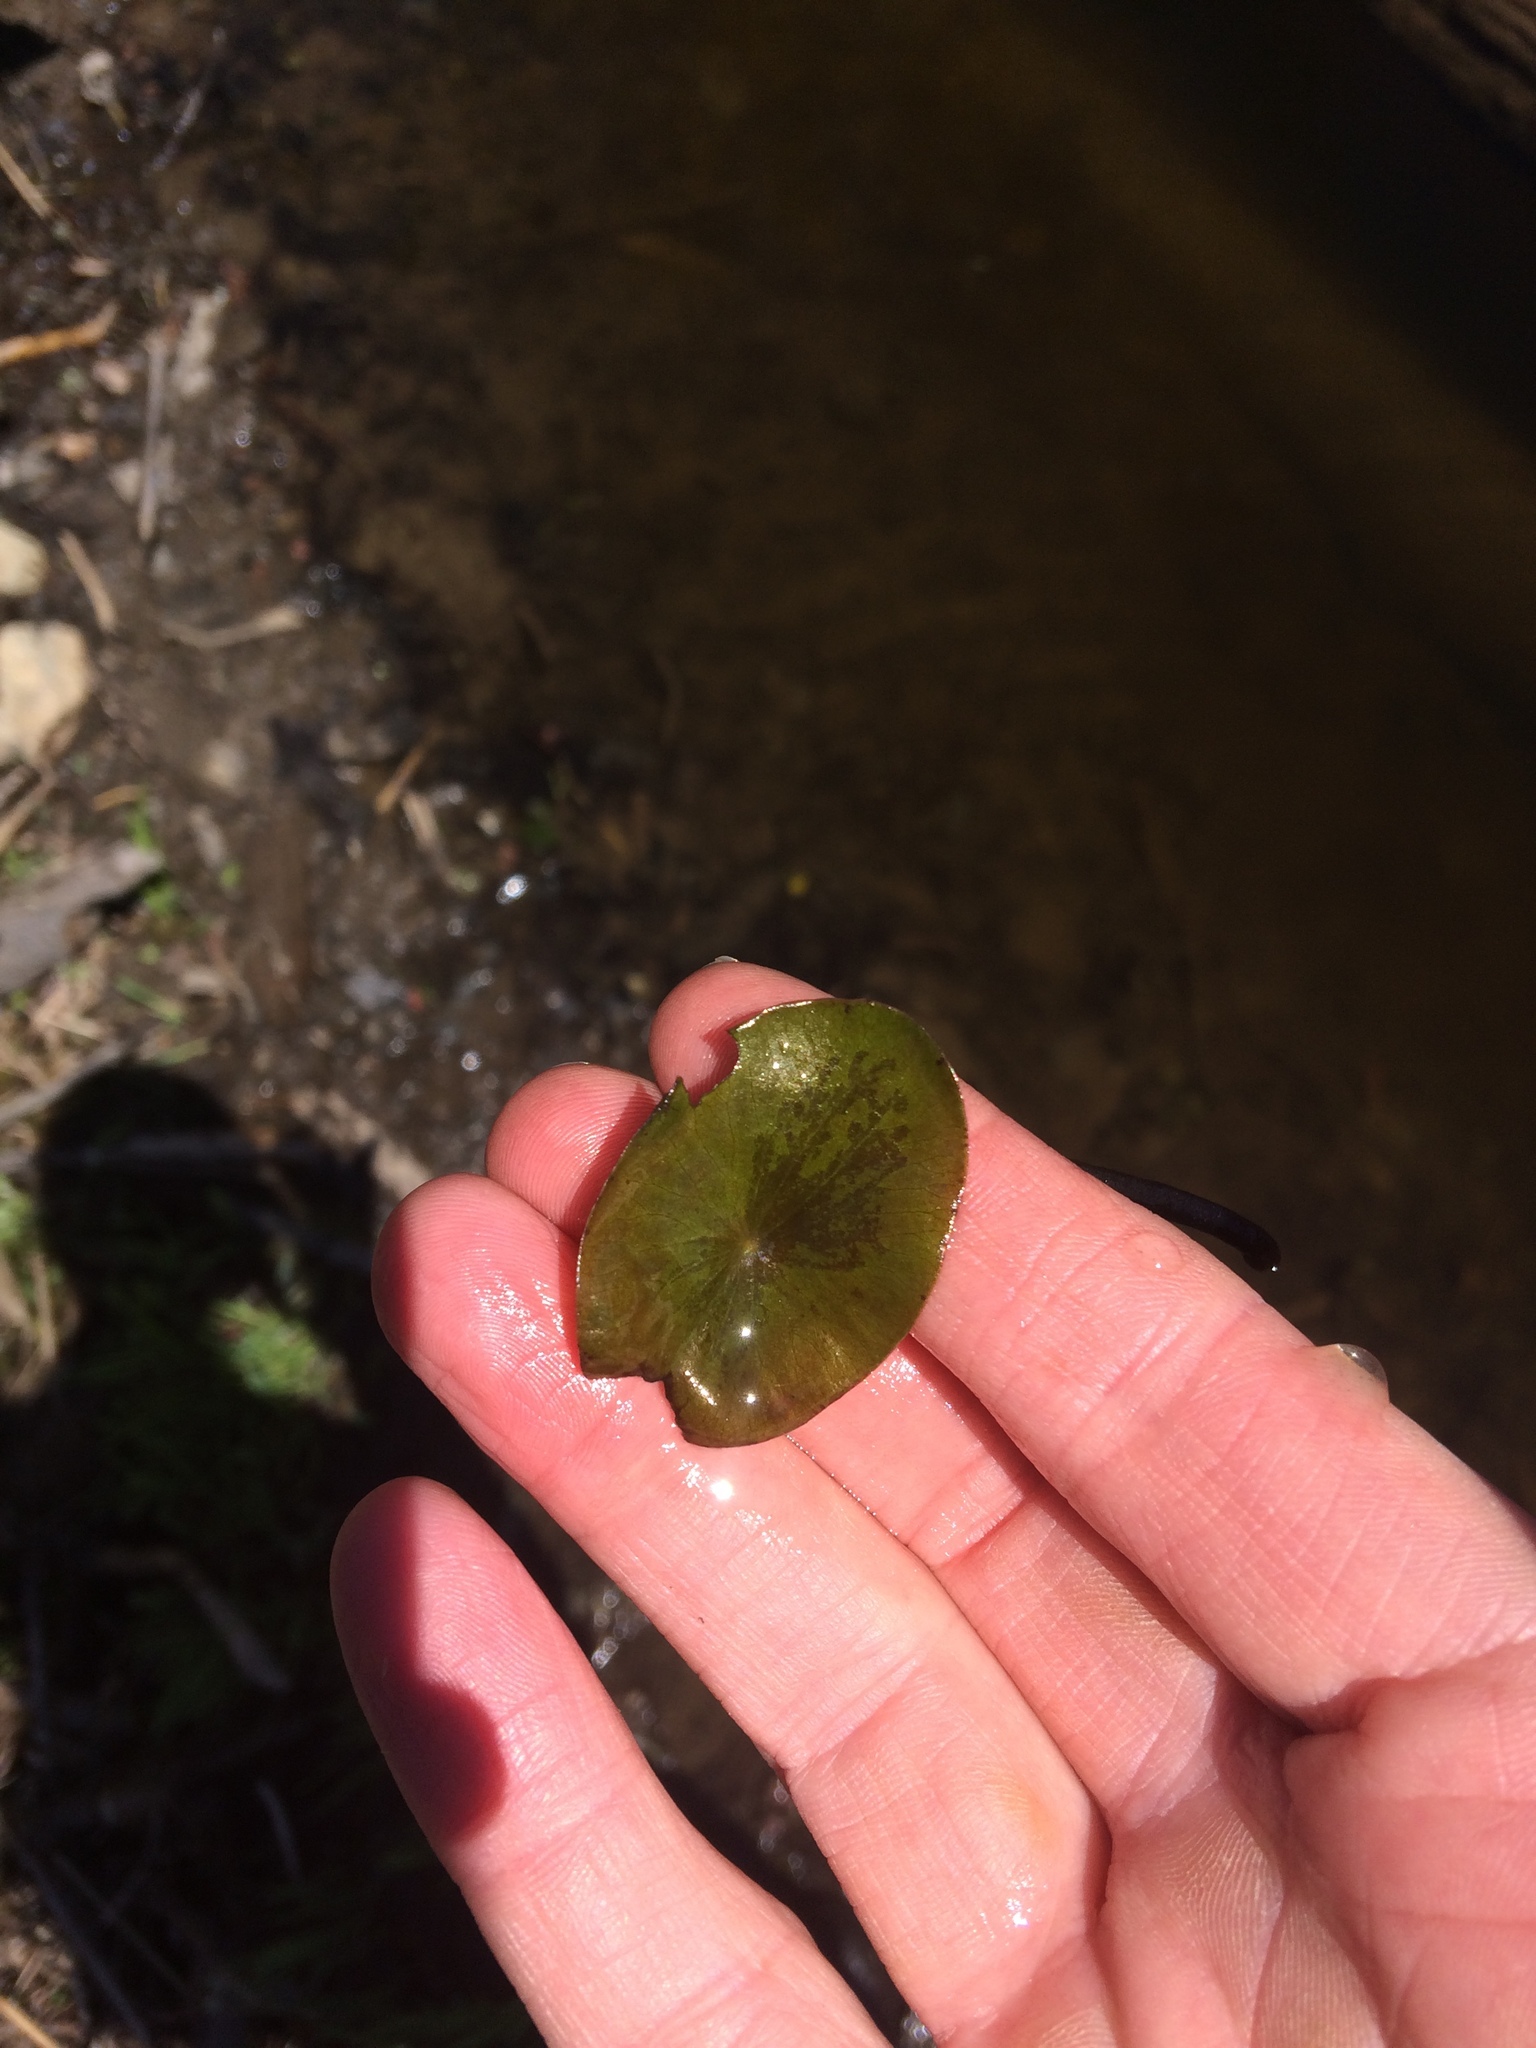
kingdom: Plantae
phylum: Tracheophyta
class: Magnoliopsida
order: Nymphaeales
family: Cabombaceae
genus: Brasenia
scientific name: Brasenia schreberi
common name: Water-shield
